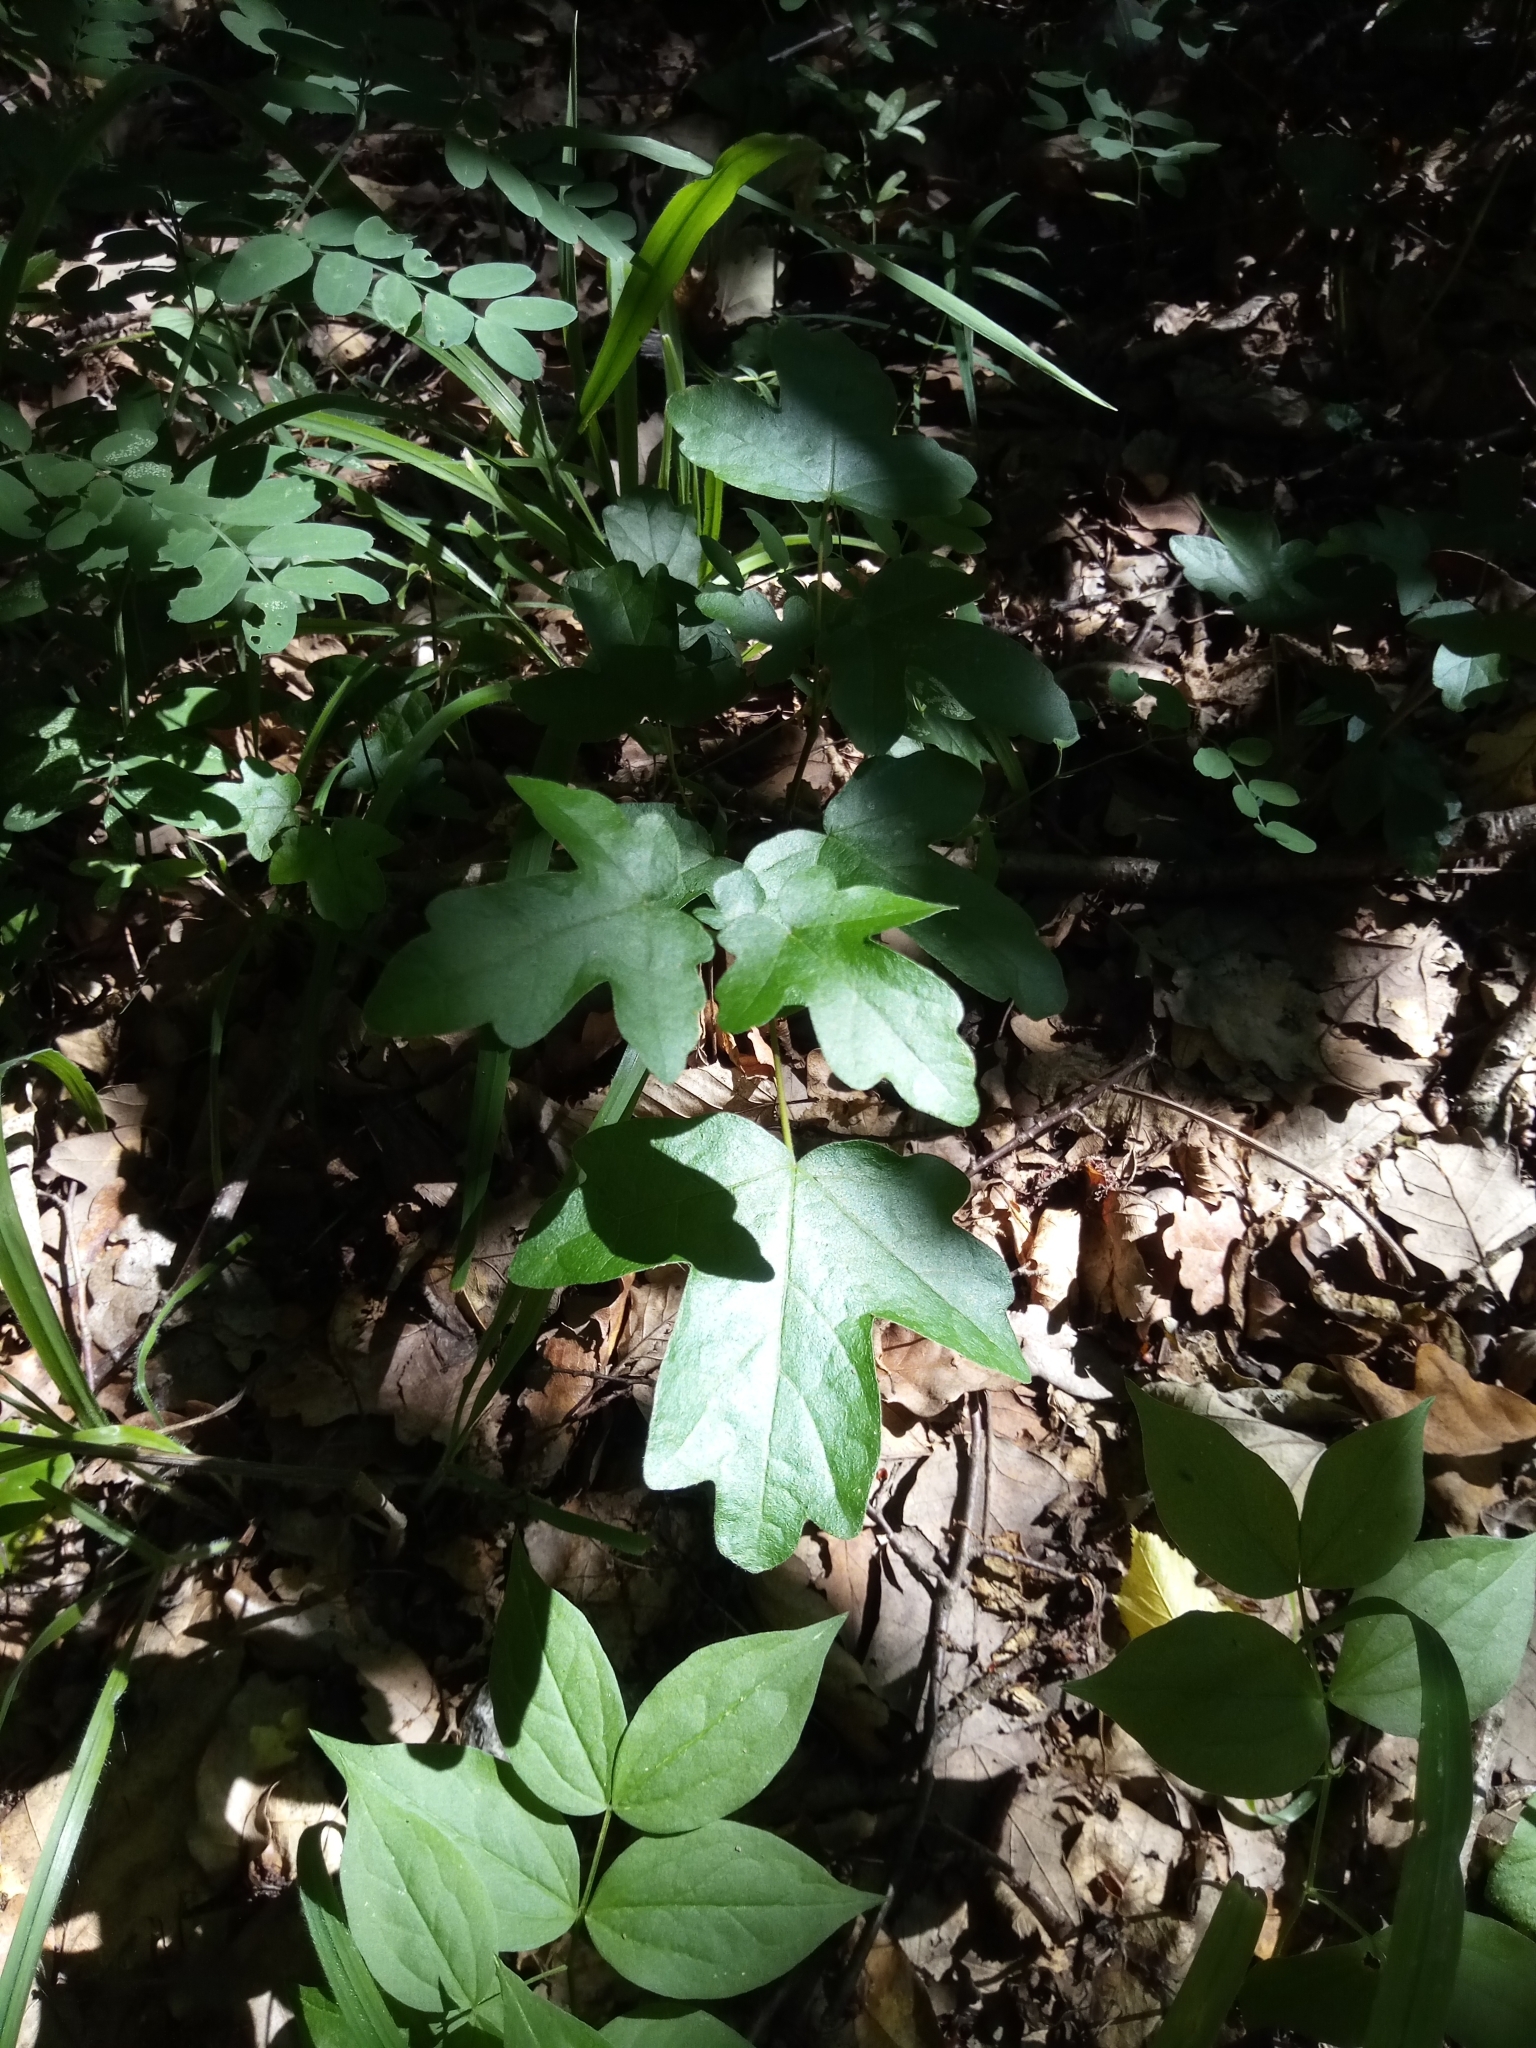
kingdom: Plantae
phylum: Tracheophyta
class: Magnoliopsida
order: Sapindales
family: Sapindaceae
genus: Acer
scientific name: Acer campestre
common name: Field maple
